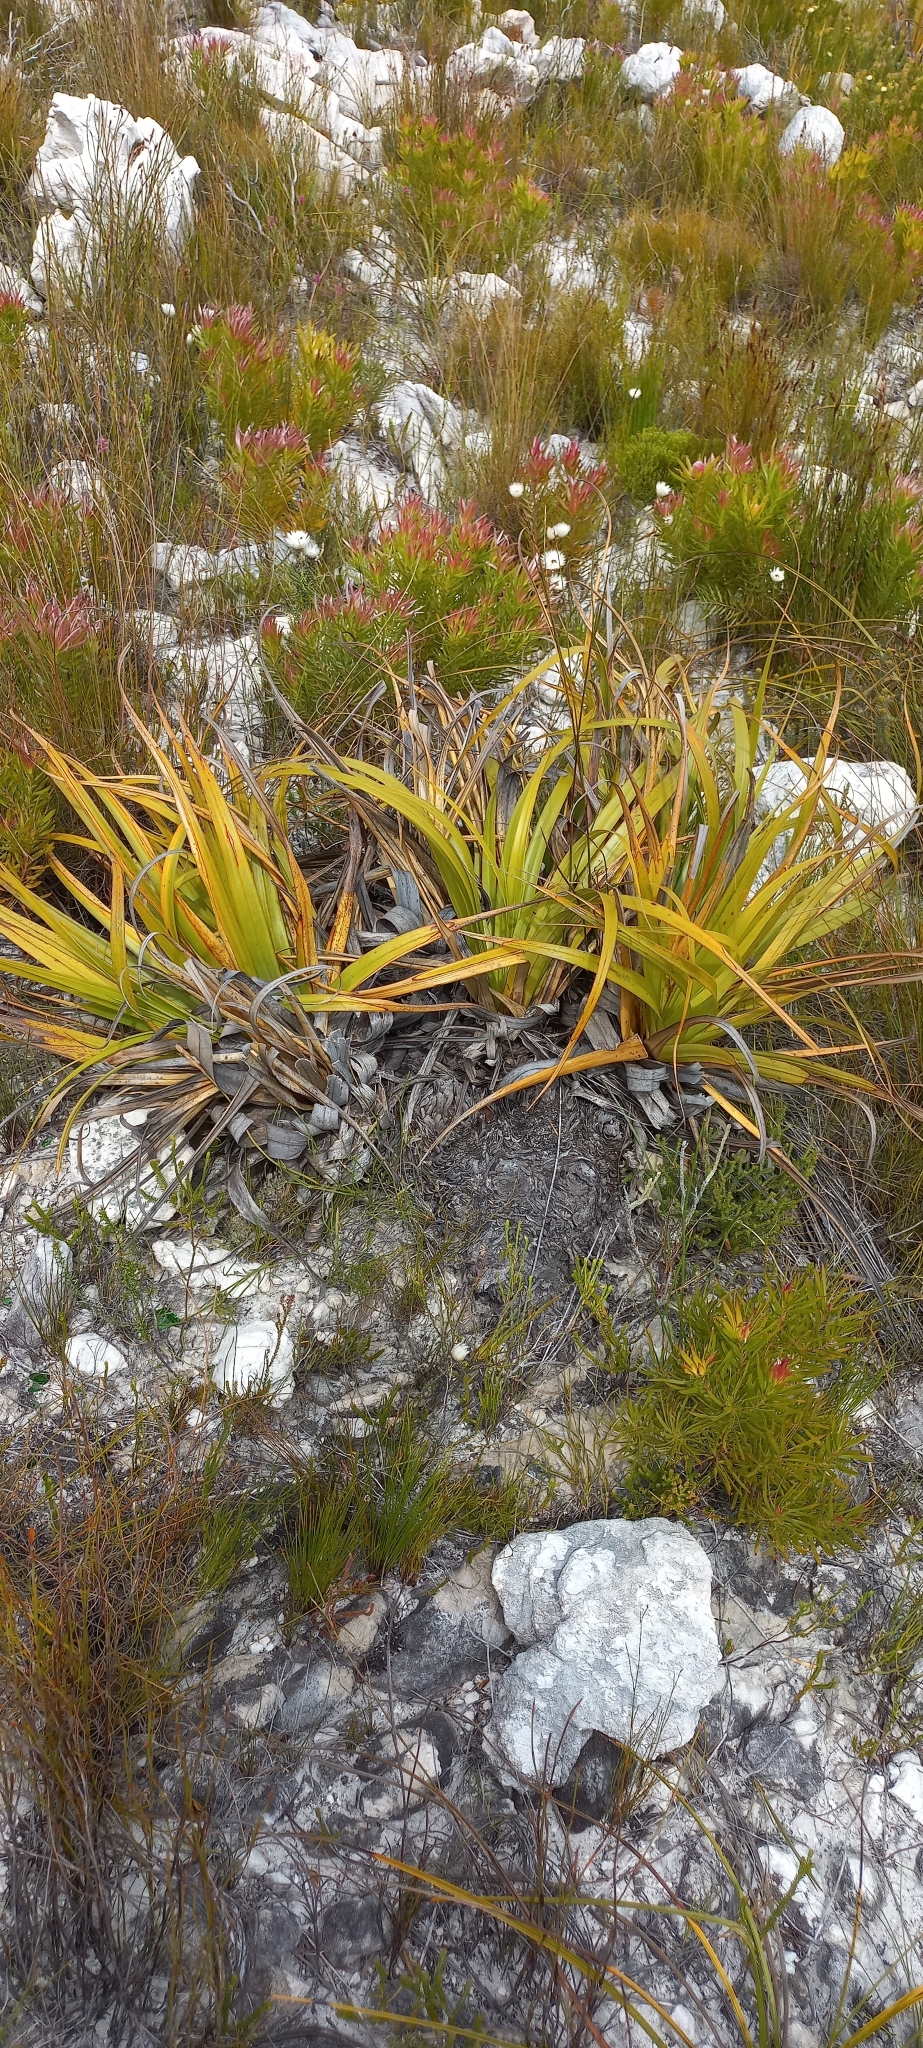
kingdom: Plantae
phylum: Tracheophyta
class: Liliopsida
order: Poales
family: Cyperaceae
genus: Tetraria
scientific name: Tetraria thermalis
